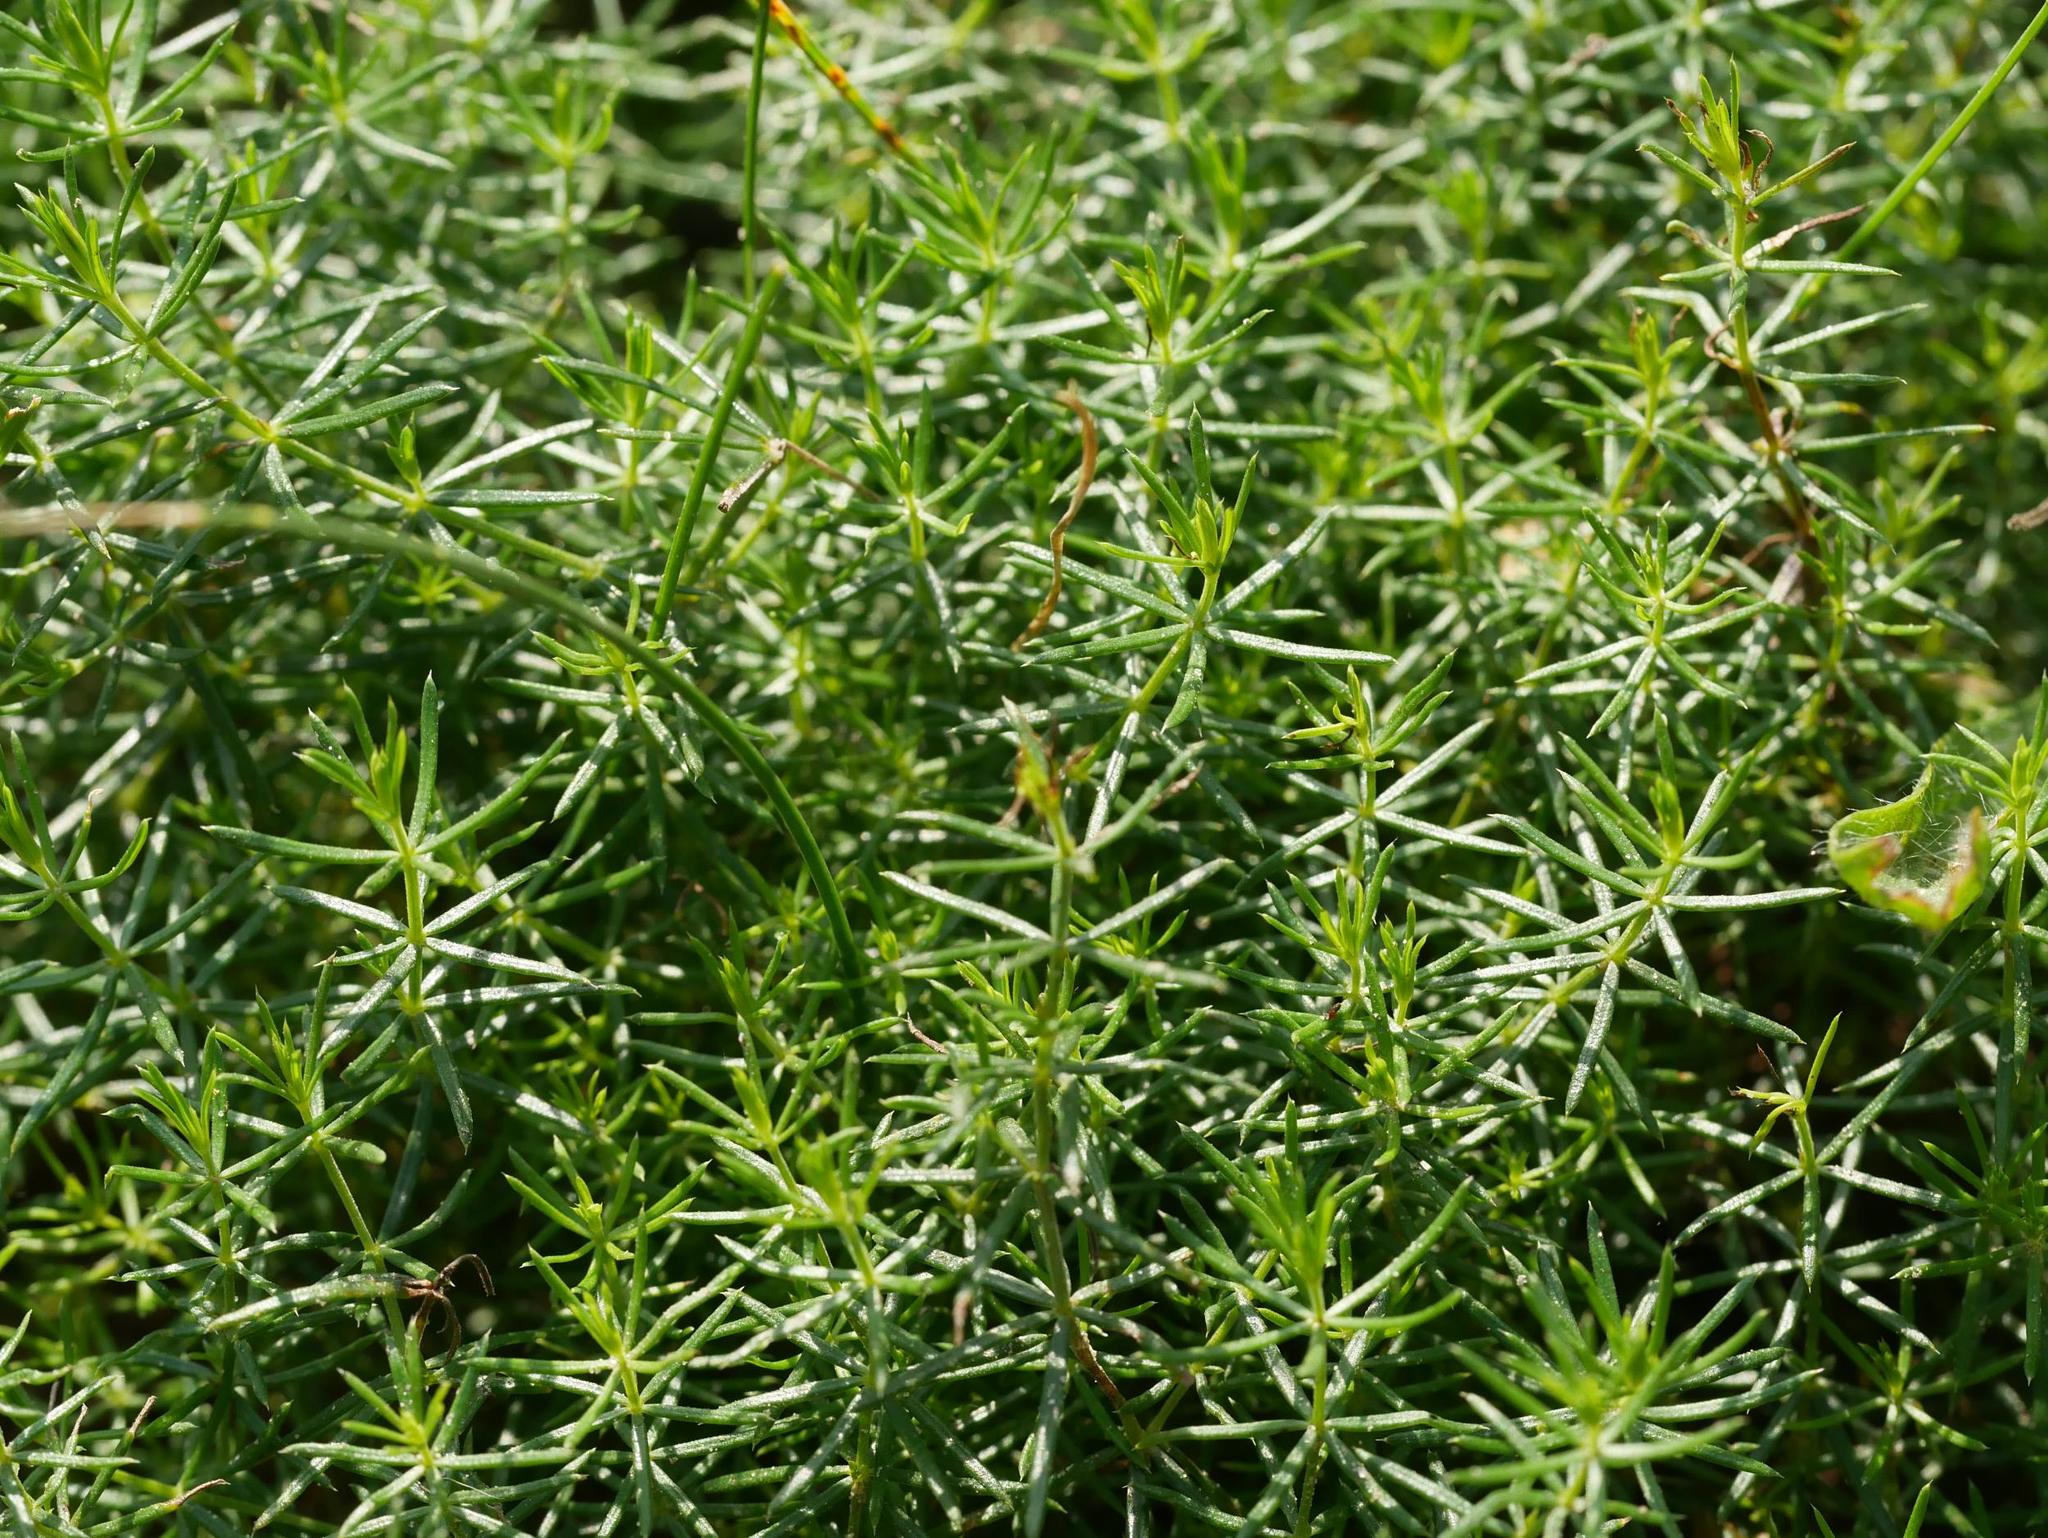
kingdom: Plantae
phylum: Tracheophyta
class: Magnoliopsida
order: Gentianales
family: Rubiaceae
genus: Galium
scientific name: Galium verum
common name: Lady's bedstraw
